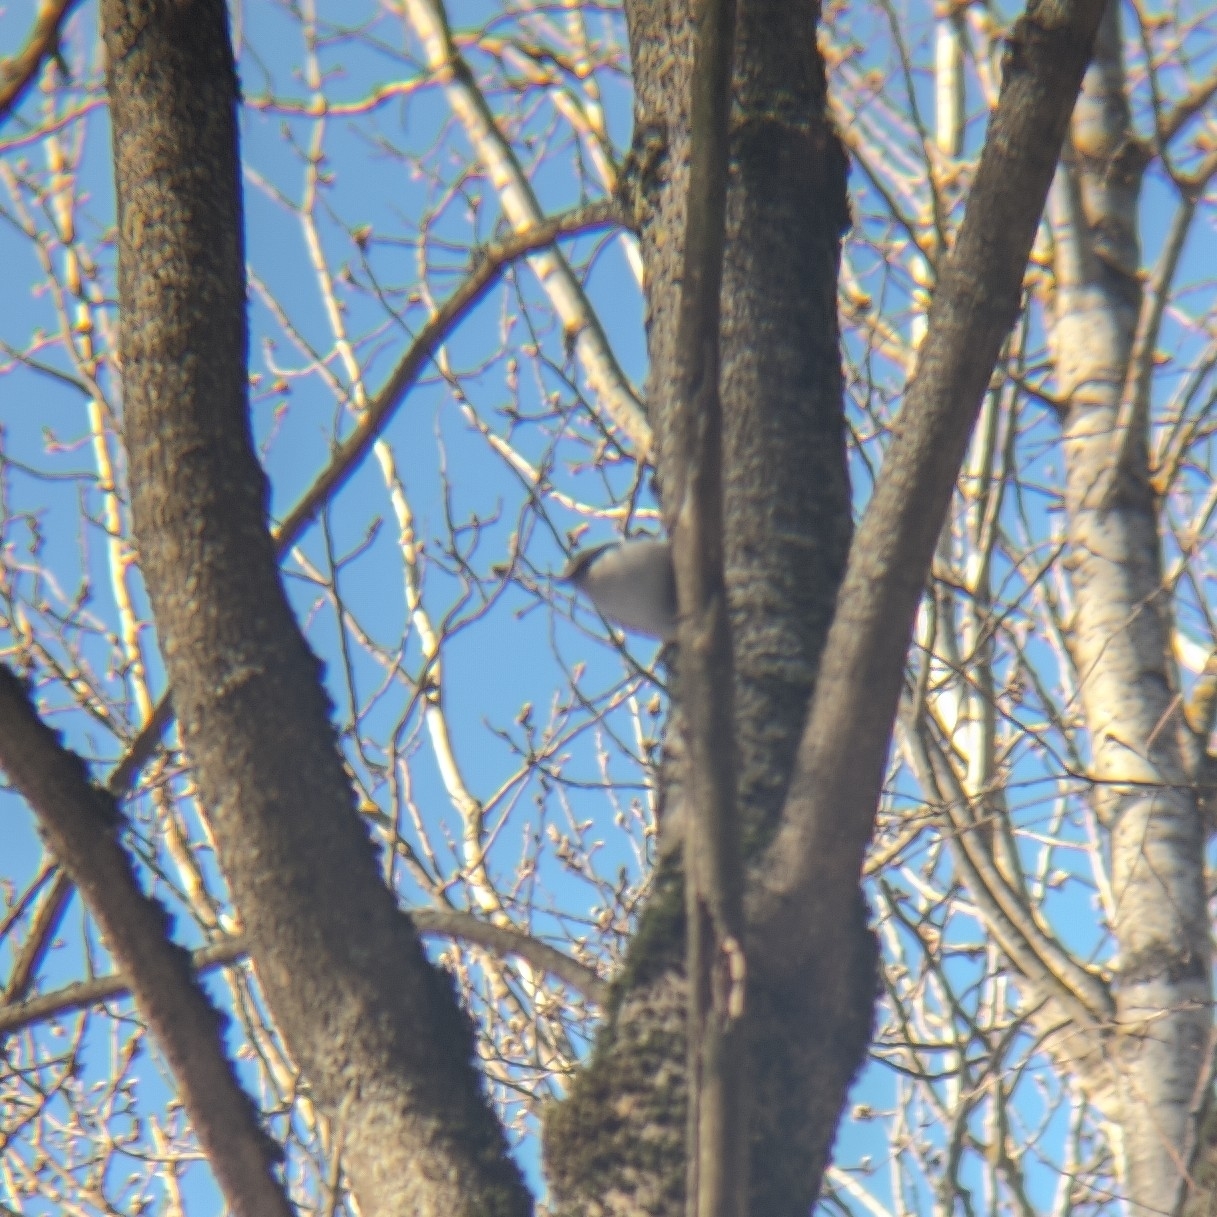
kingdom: Animalia
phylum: Chordata
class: Aves
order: Passeriformes
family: Sittidae
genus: Sitta
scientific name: Sitta europaea
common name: Eurasian nuthatch
